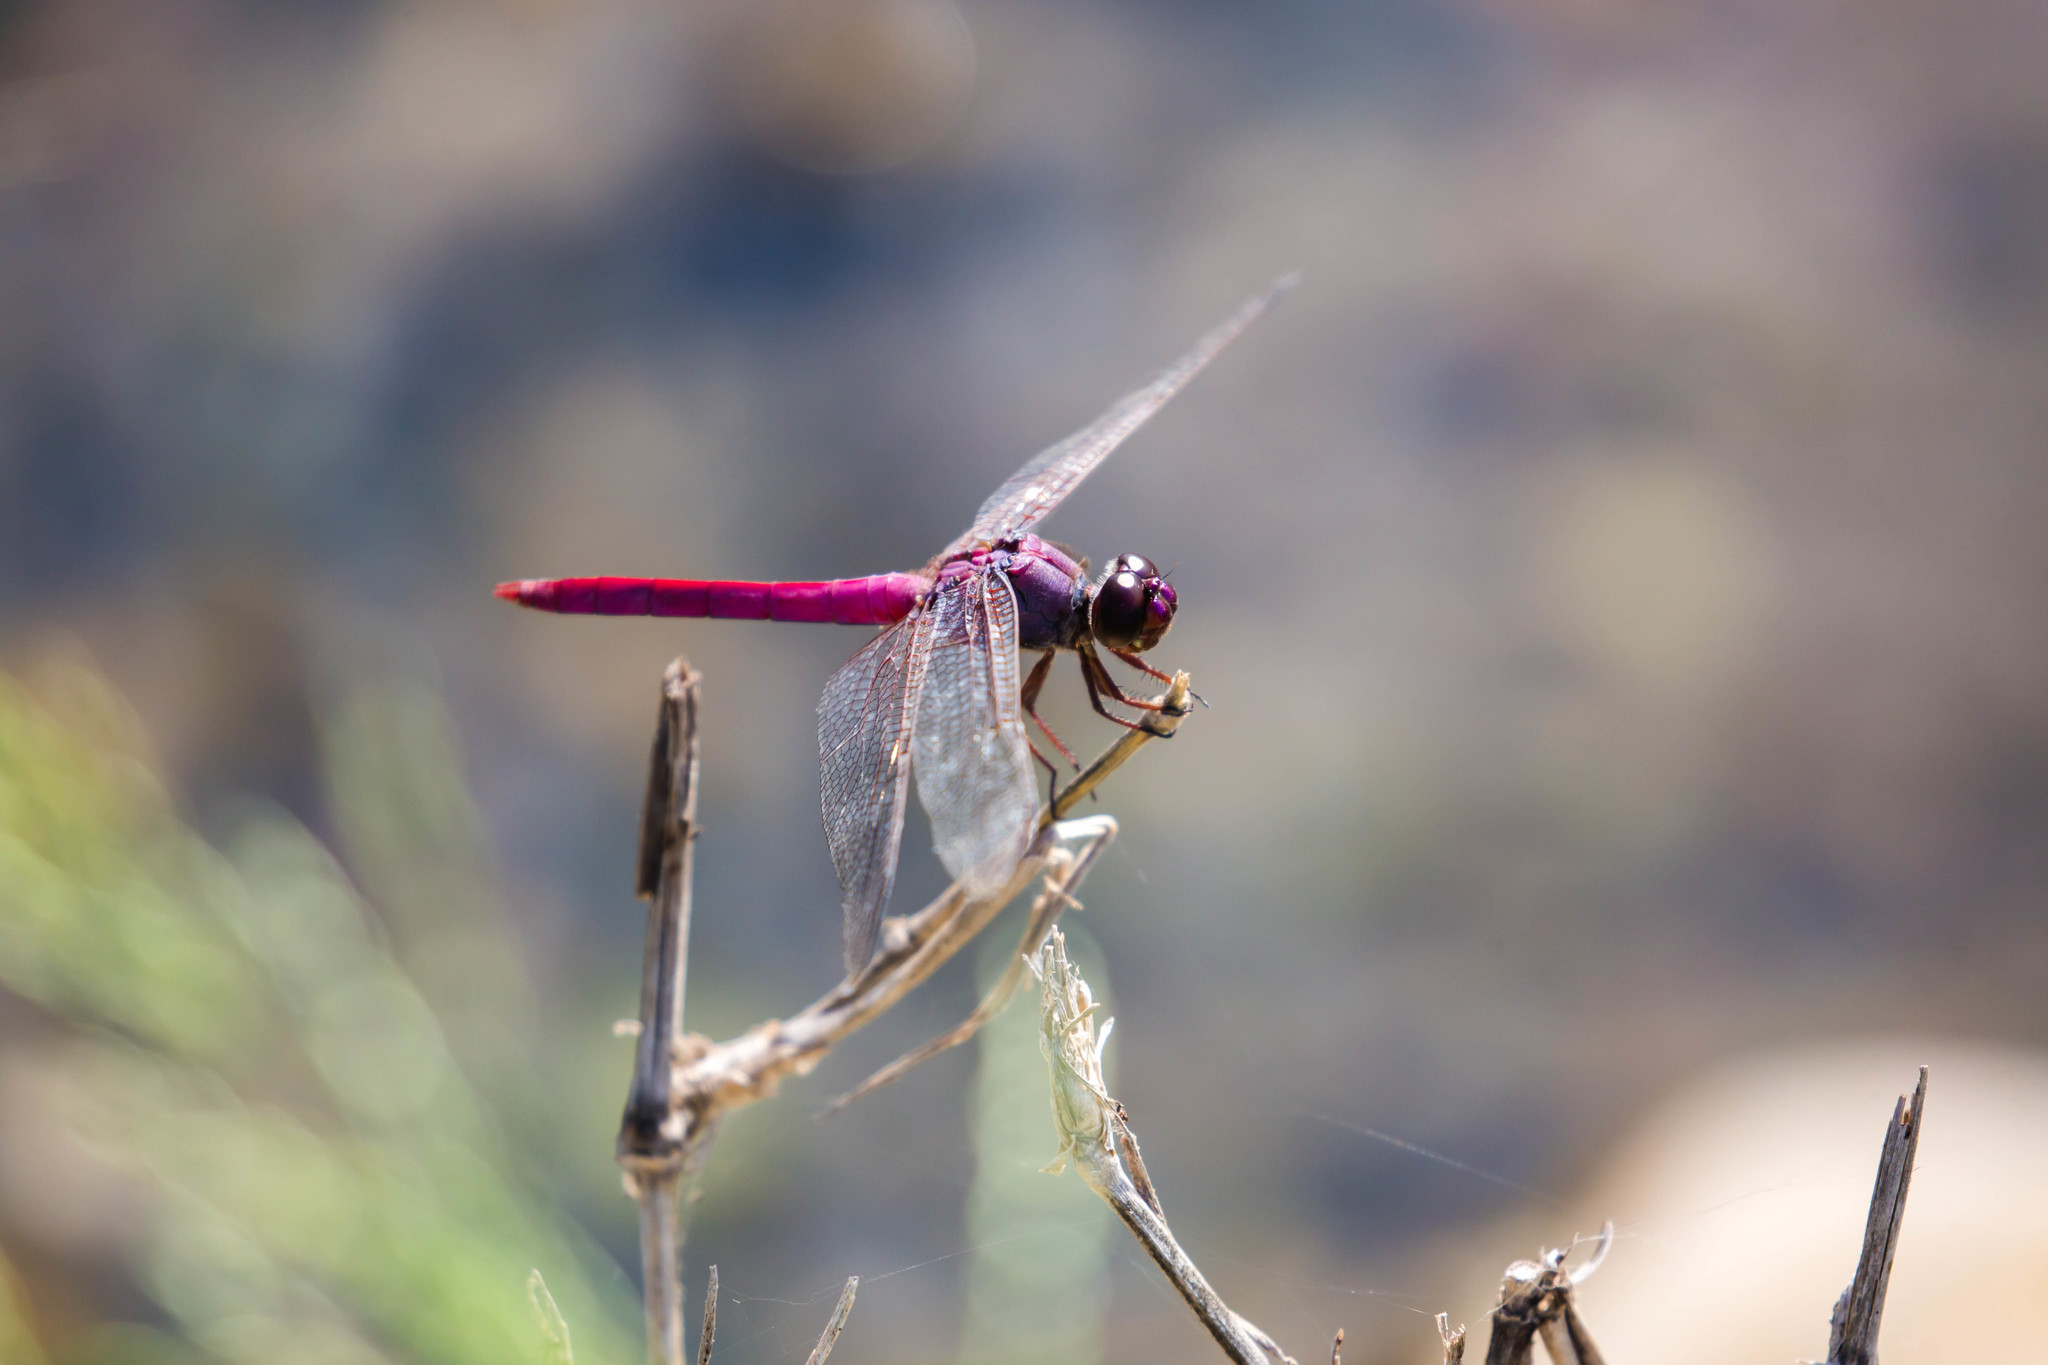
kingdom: Animalia
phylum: Arthropoda
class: Insecta
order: Odonata
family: Libellulidae
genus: Orthemis
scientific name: Orthemis ferruginea
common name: Roseate skimmer
